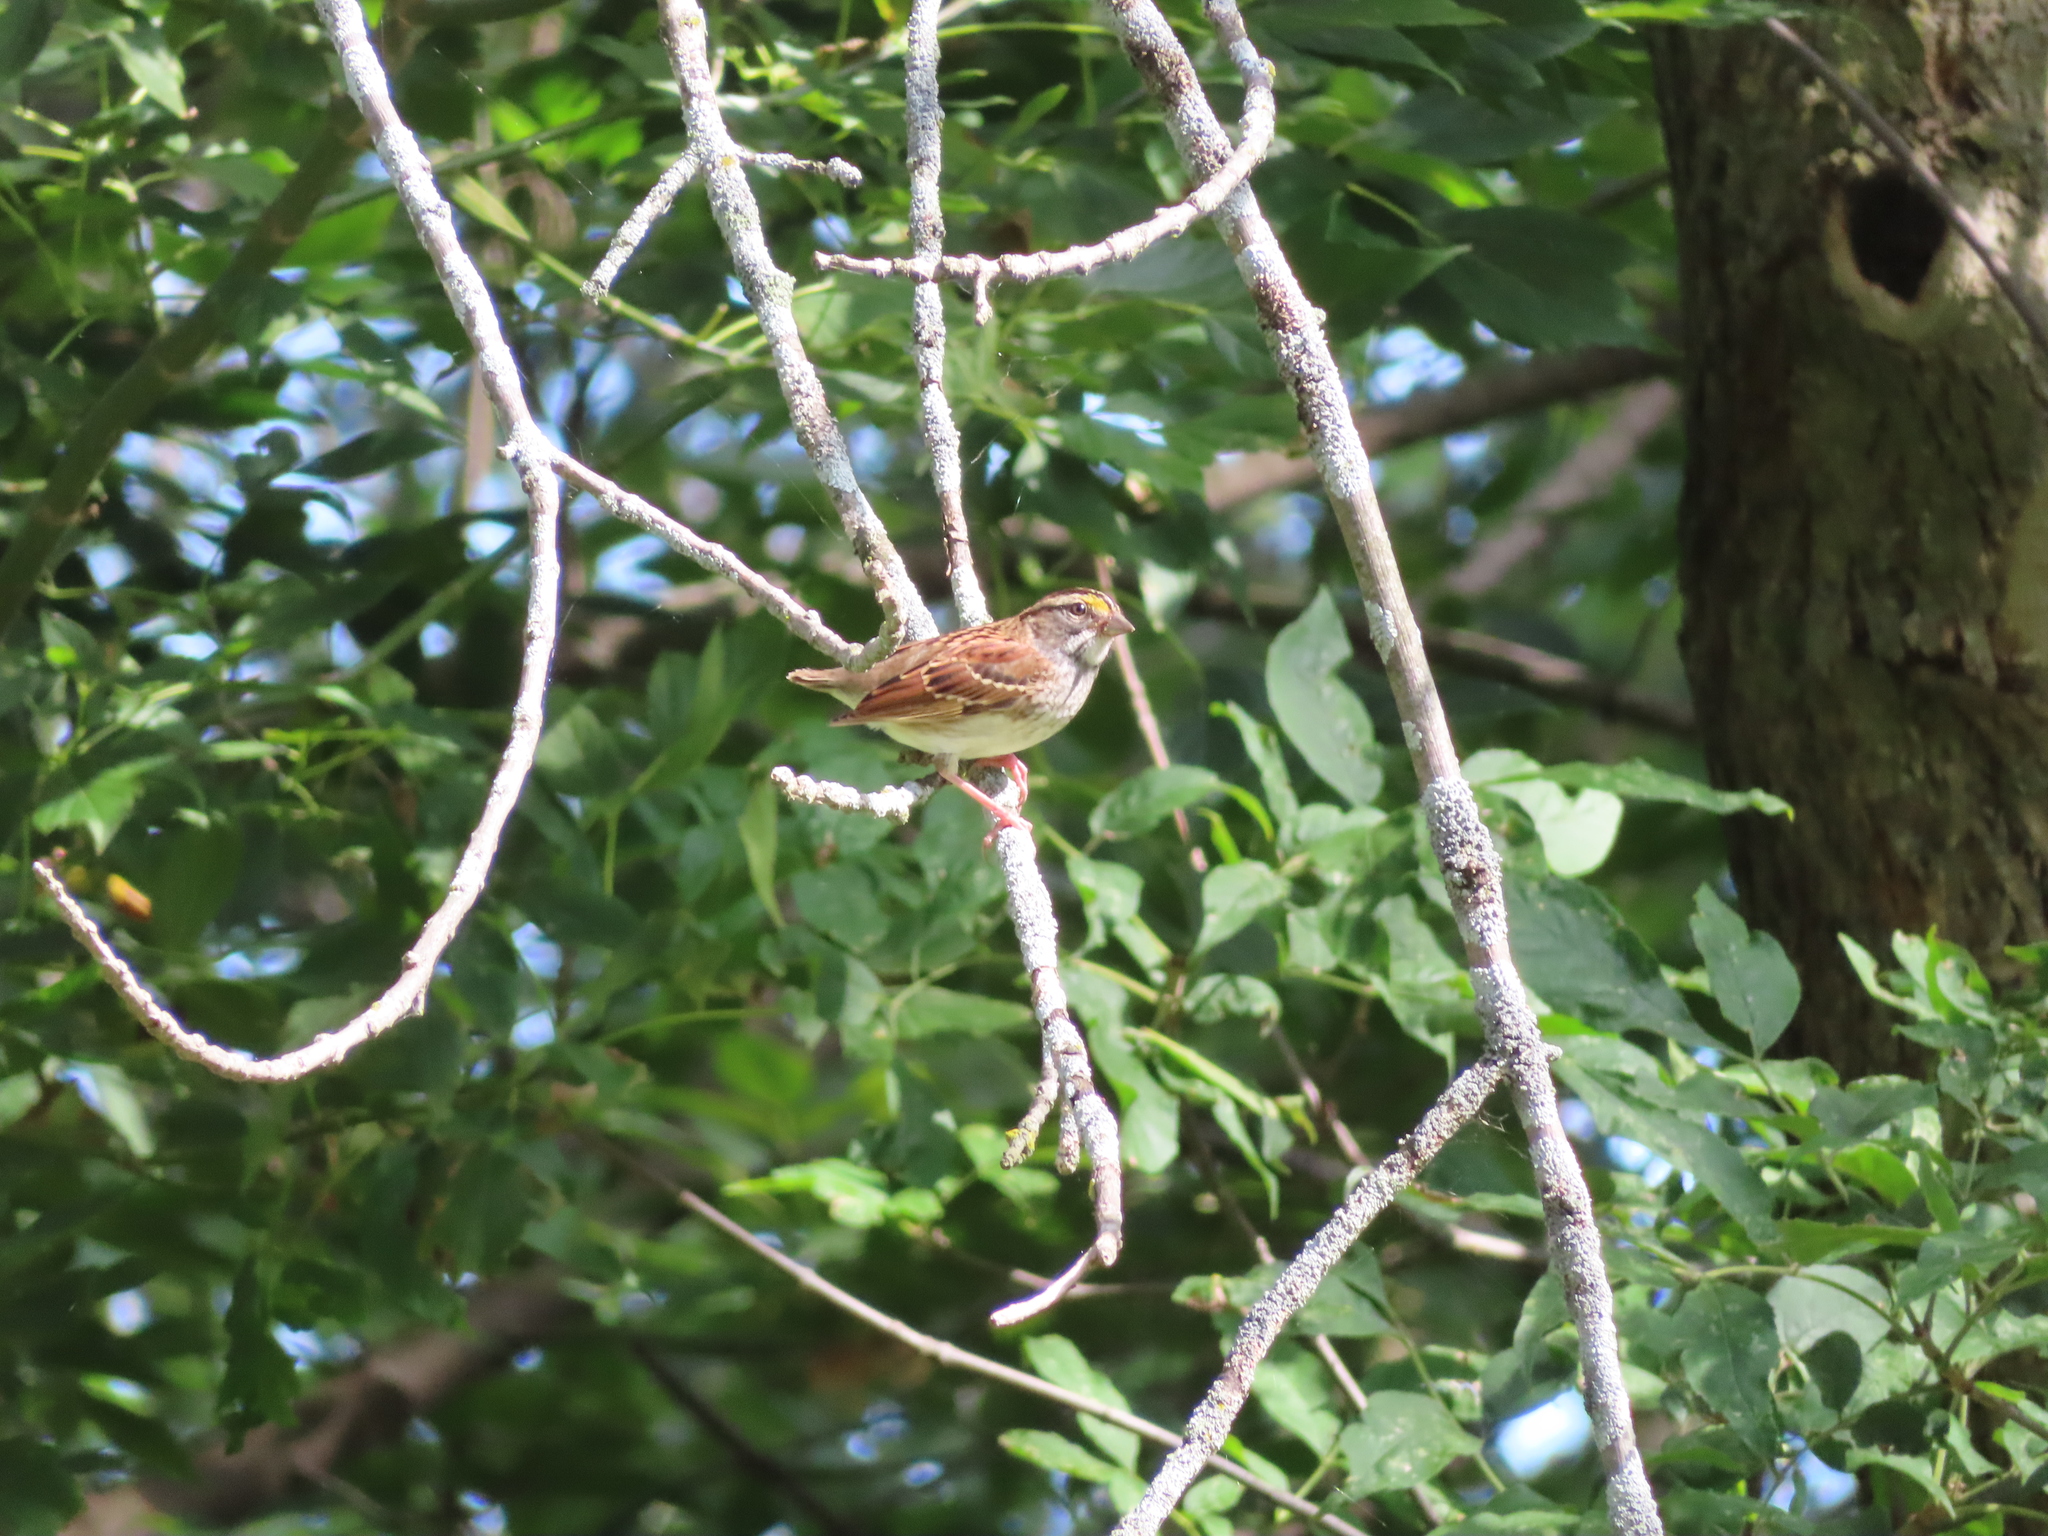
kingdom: Animalia
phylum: Chordata
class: Aves
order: Passeriformes
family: Passerellidae
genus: Zonotrichia
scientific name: Zonotrichia albicollis
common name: White-throated sparrow
